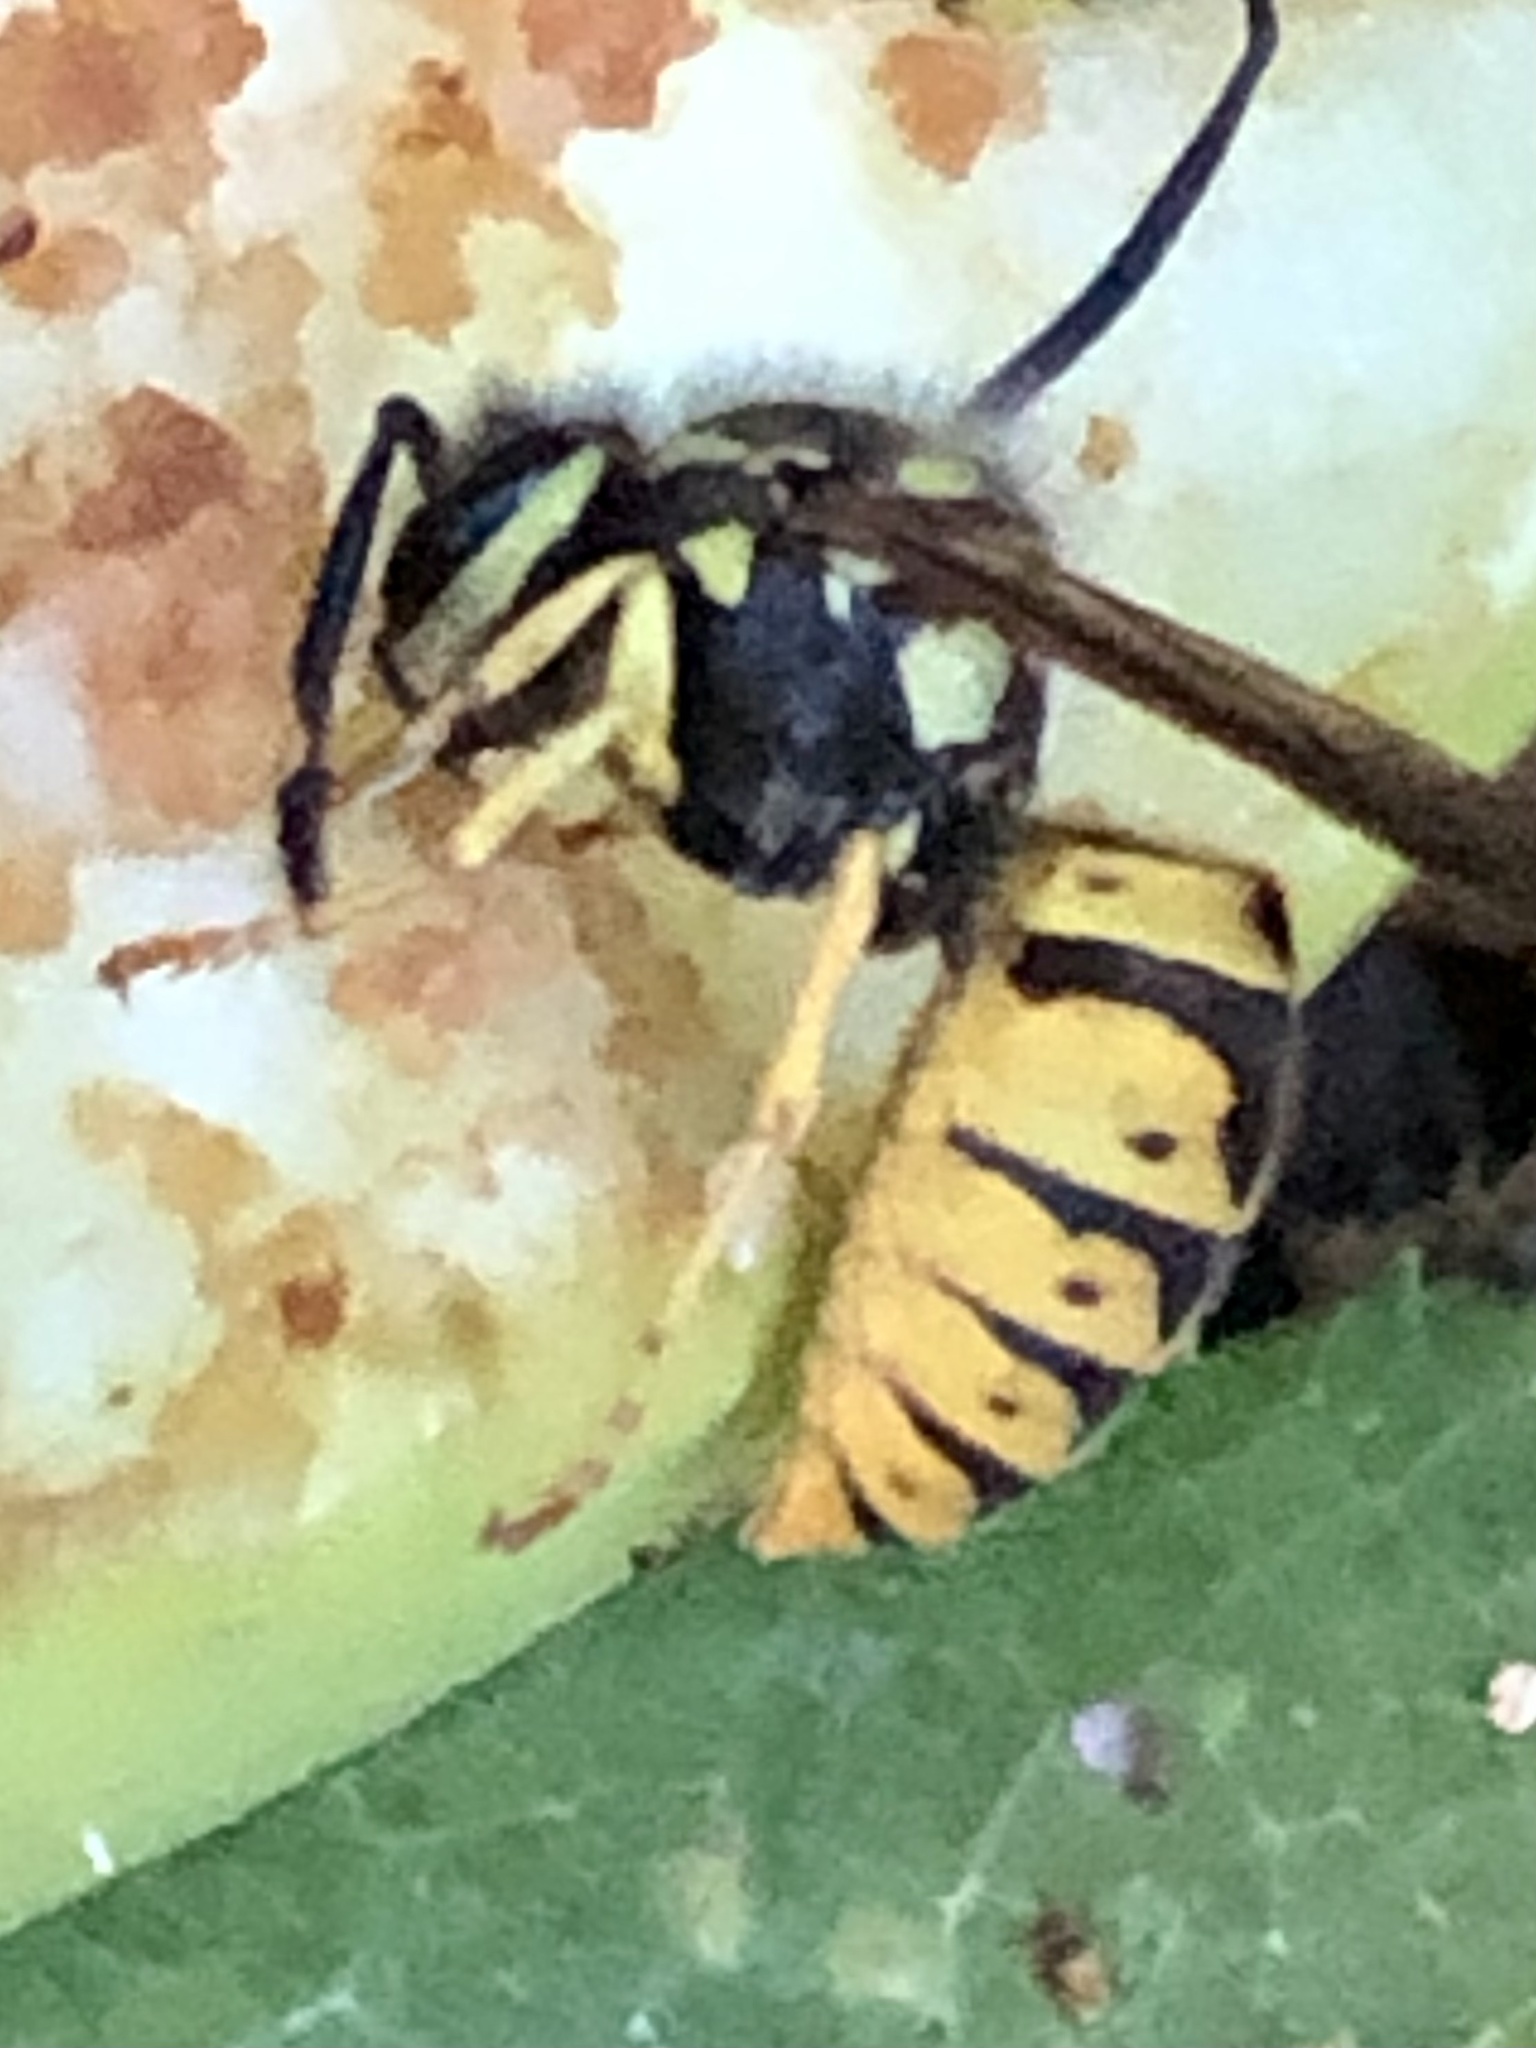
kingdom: Animalia
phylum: Arthropoda
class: Insecta
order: Hymenoptera
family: Vespidae
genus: Vespula
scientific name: Vespula germanica
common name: German wasp
